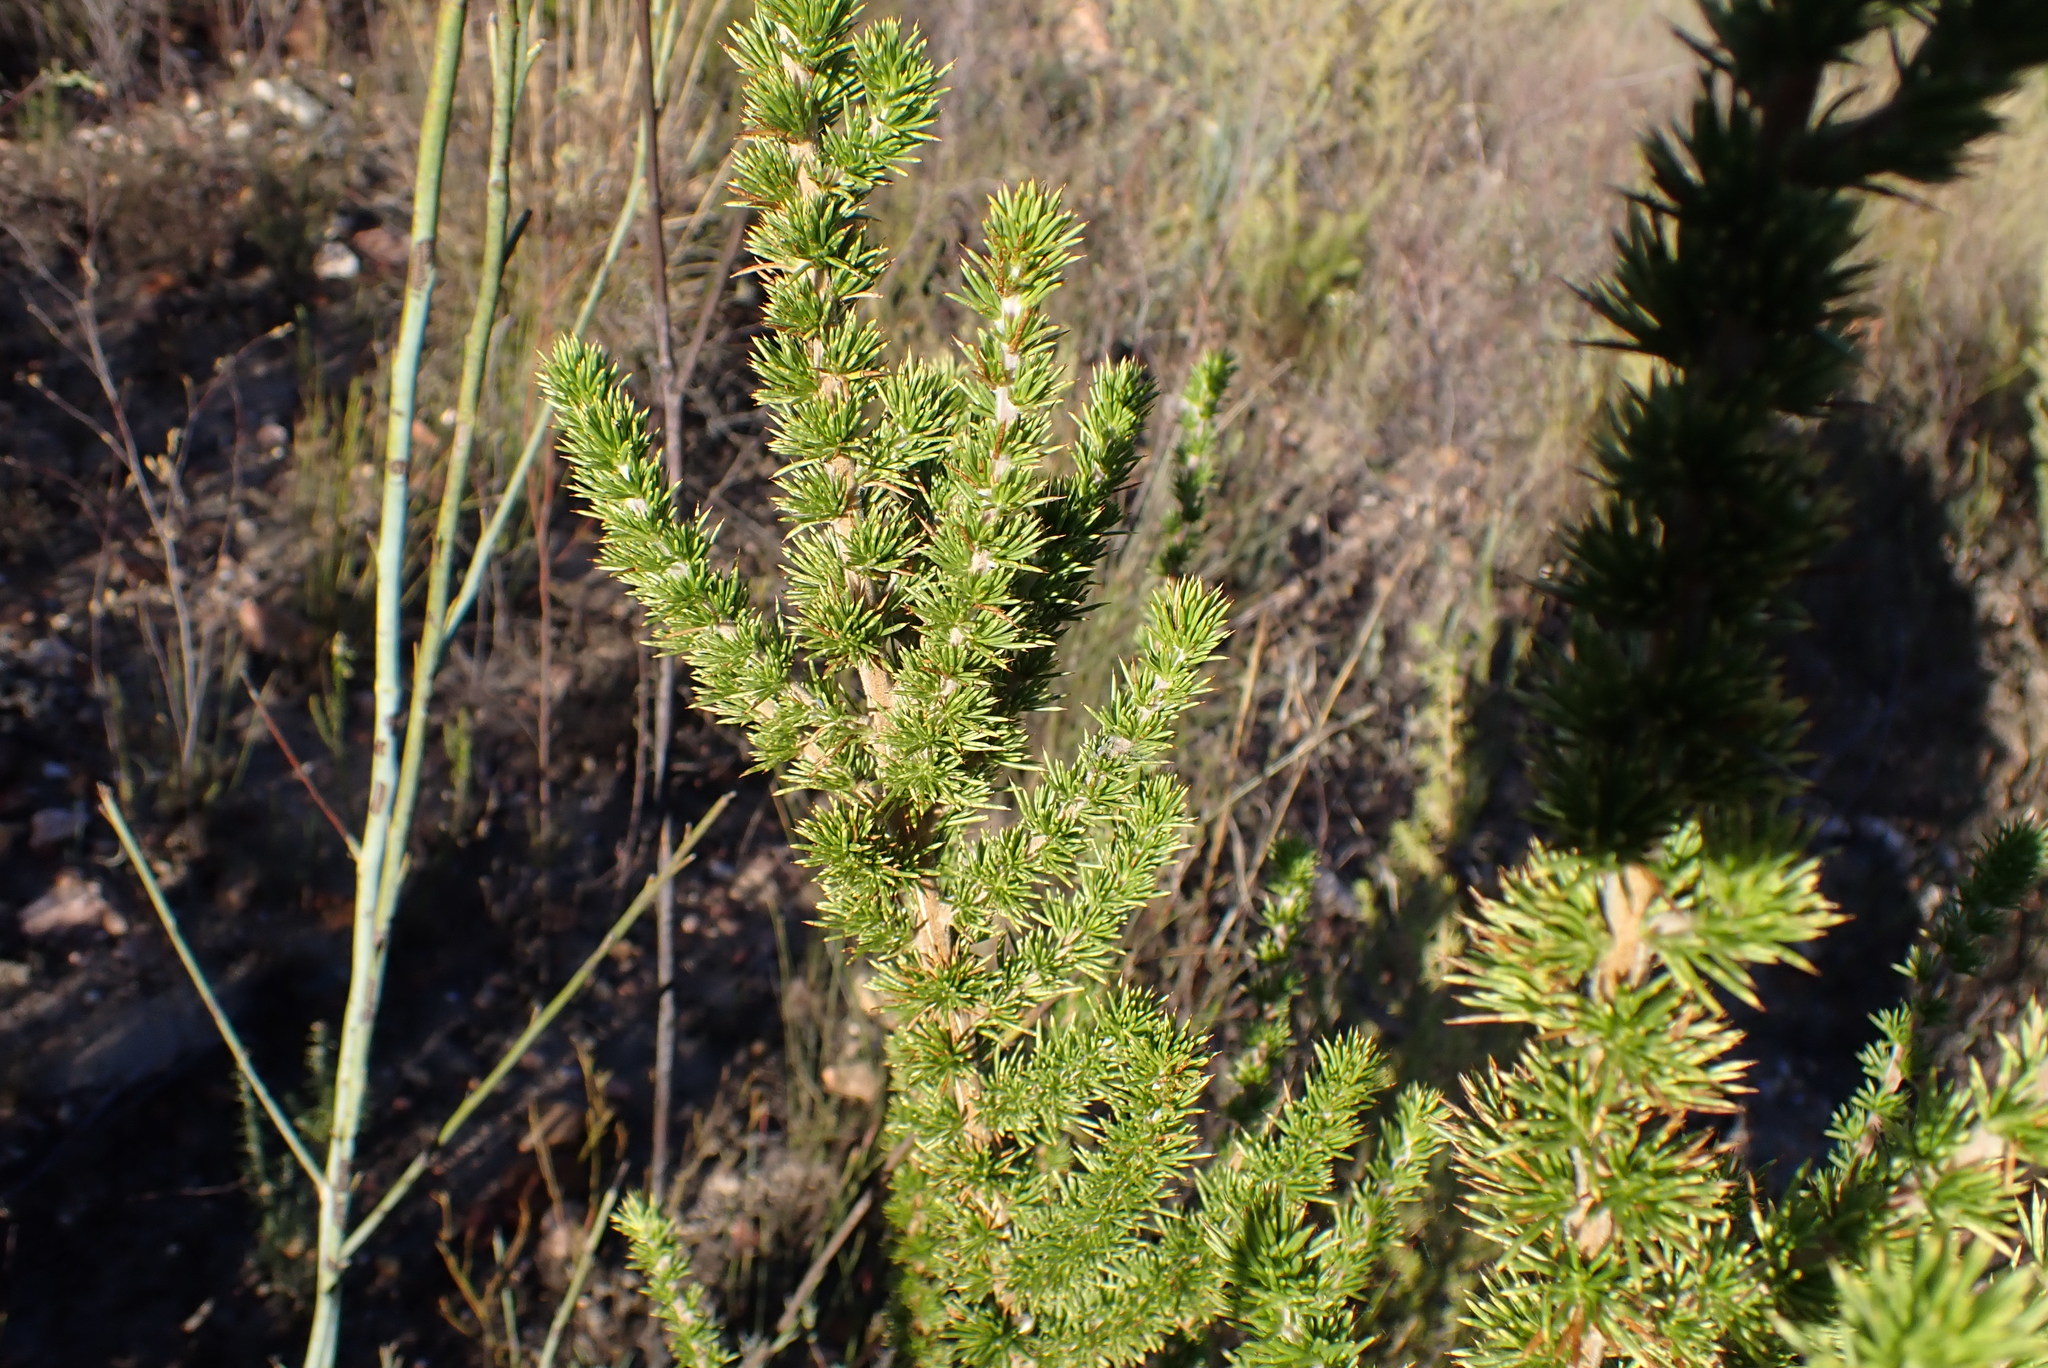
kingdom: Plantae
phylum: Tracheophyta
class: Magnoliopsida
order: Fabales
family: Fabaceae
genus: Aspalathus
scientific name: Aspalathus sceptrumaureum
